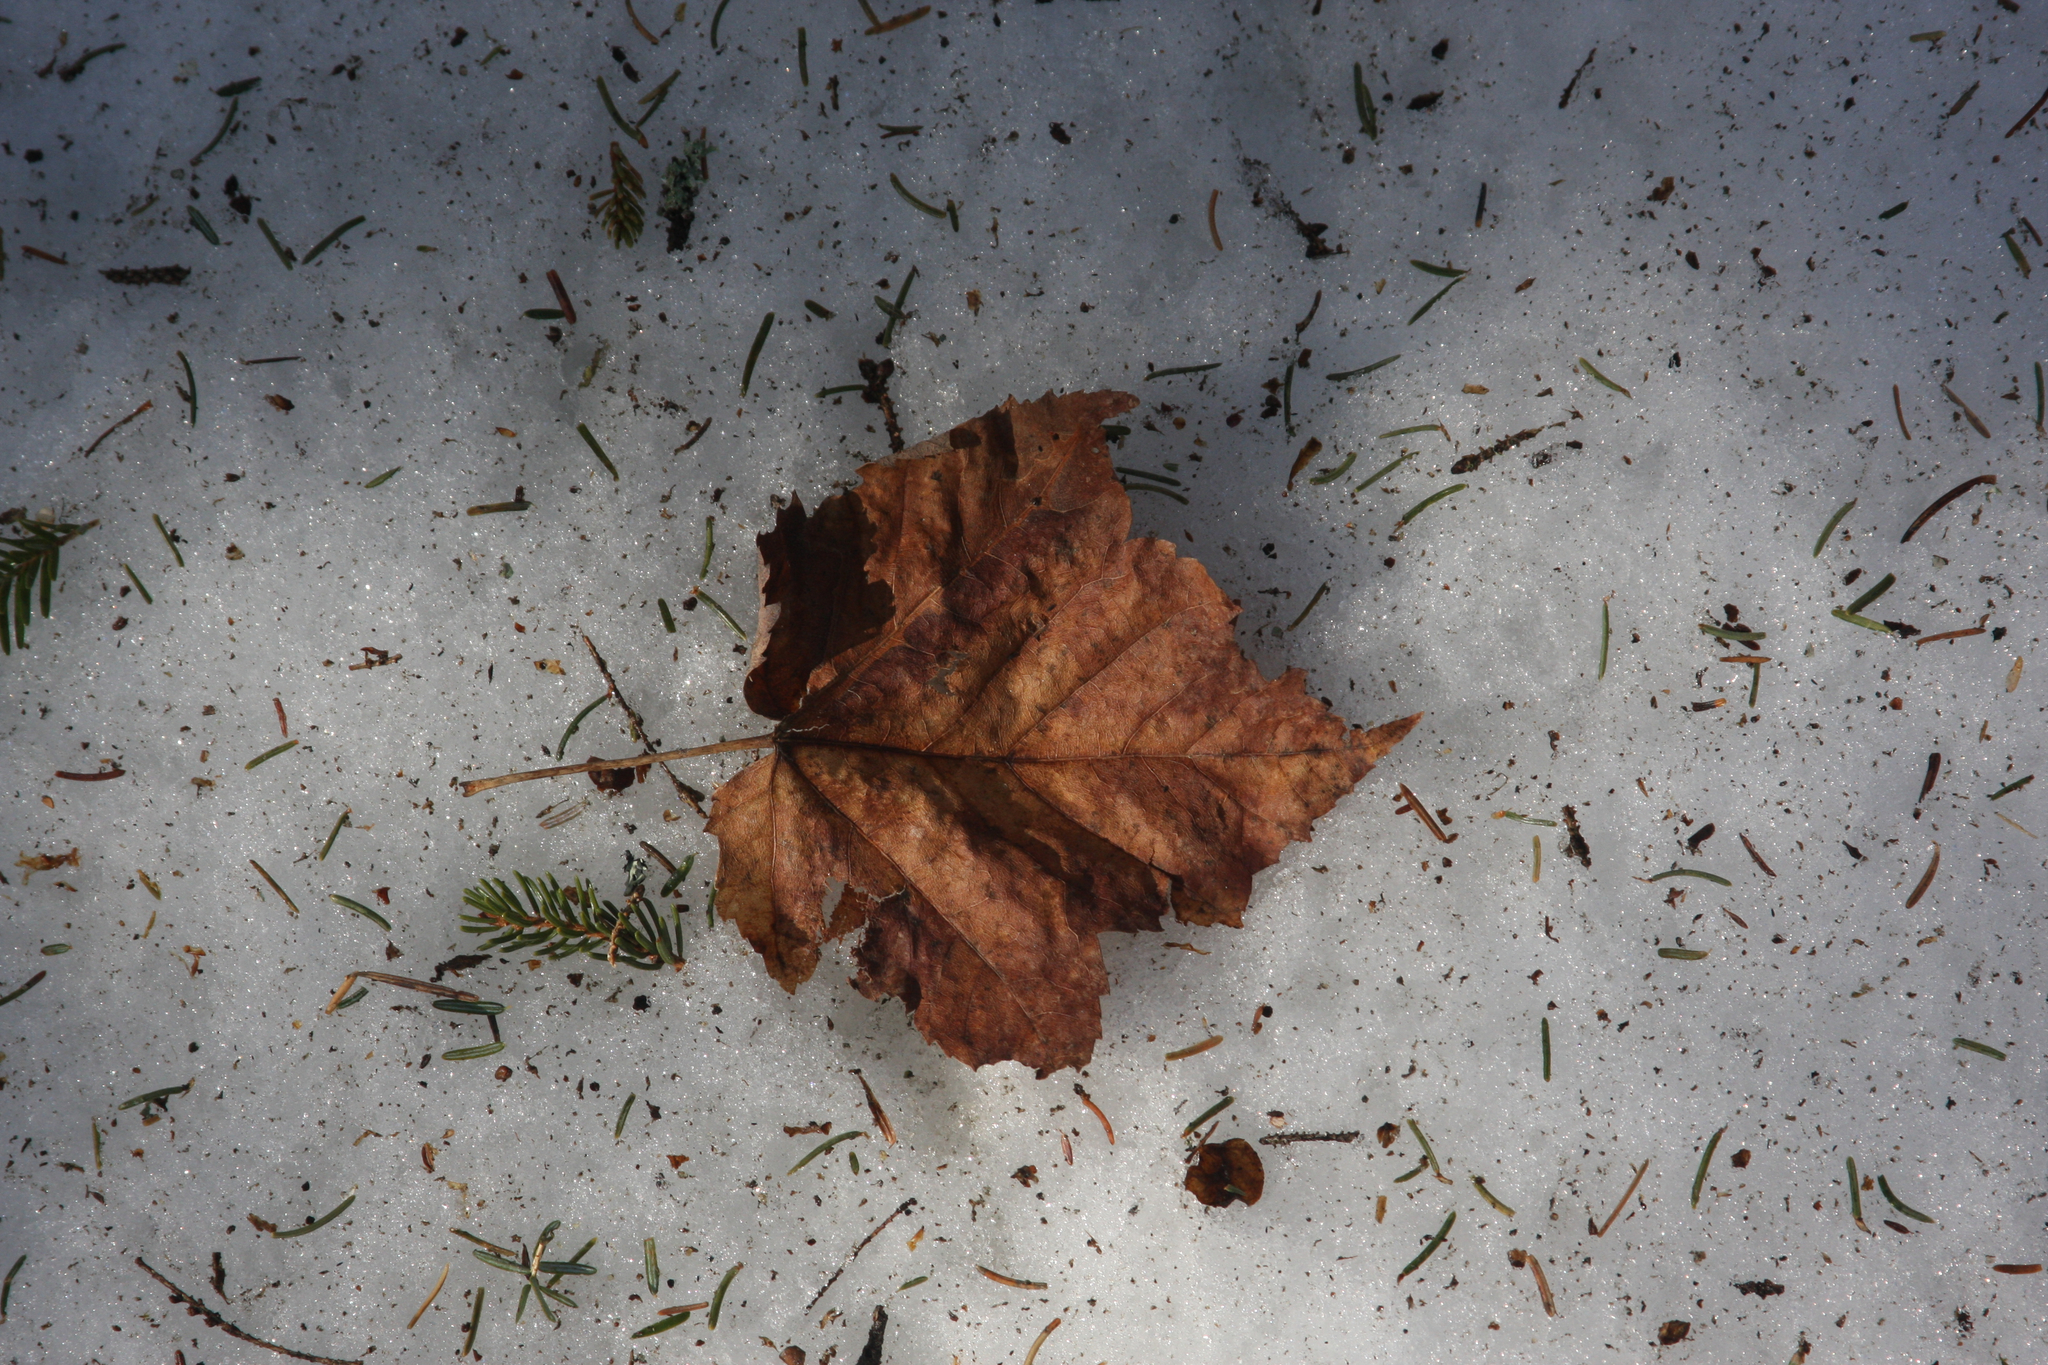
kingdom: Plantae
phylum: Tracheophyta
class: Magnoliopsida
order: Sapindales
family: Sapindaceae
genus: Acer
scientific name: Acer rubrum
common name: Red maple
